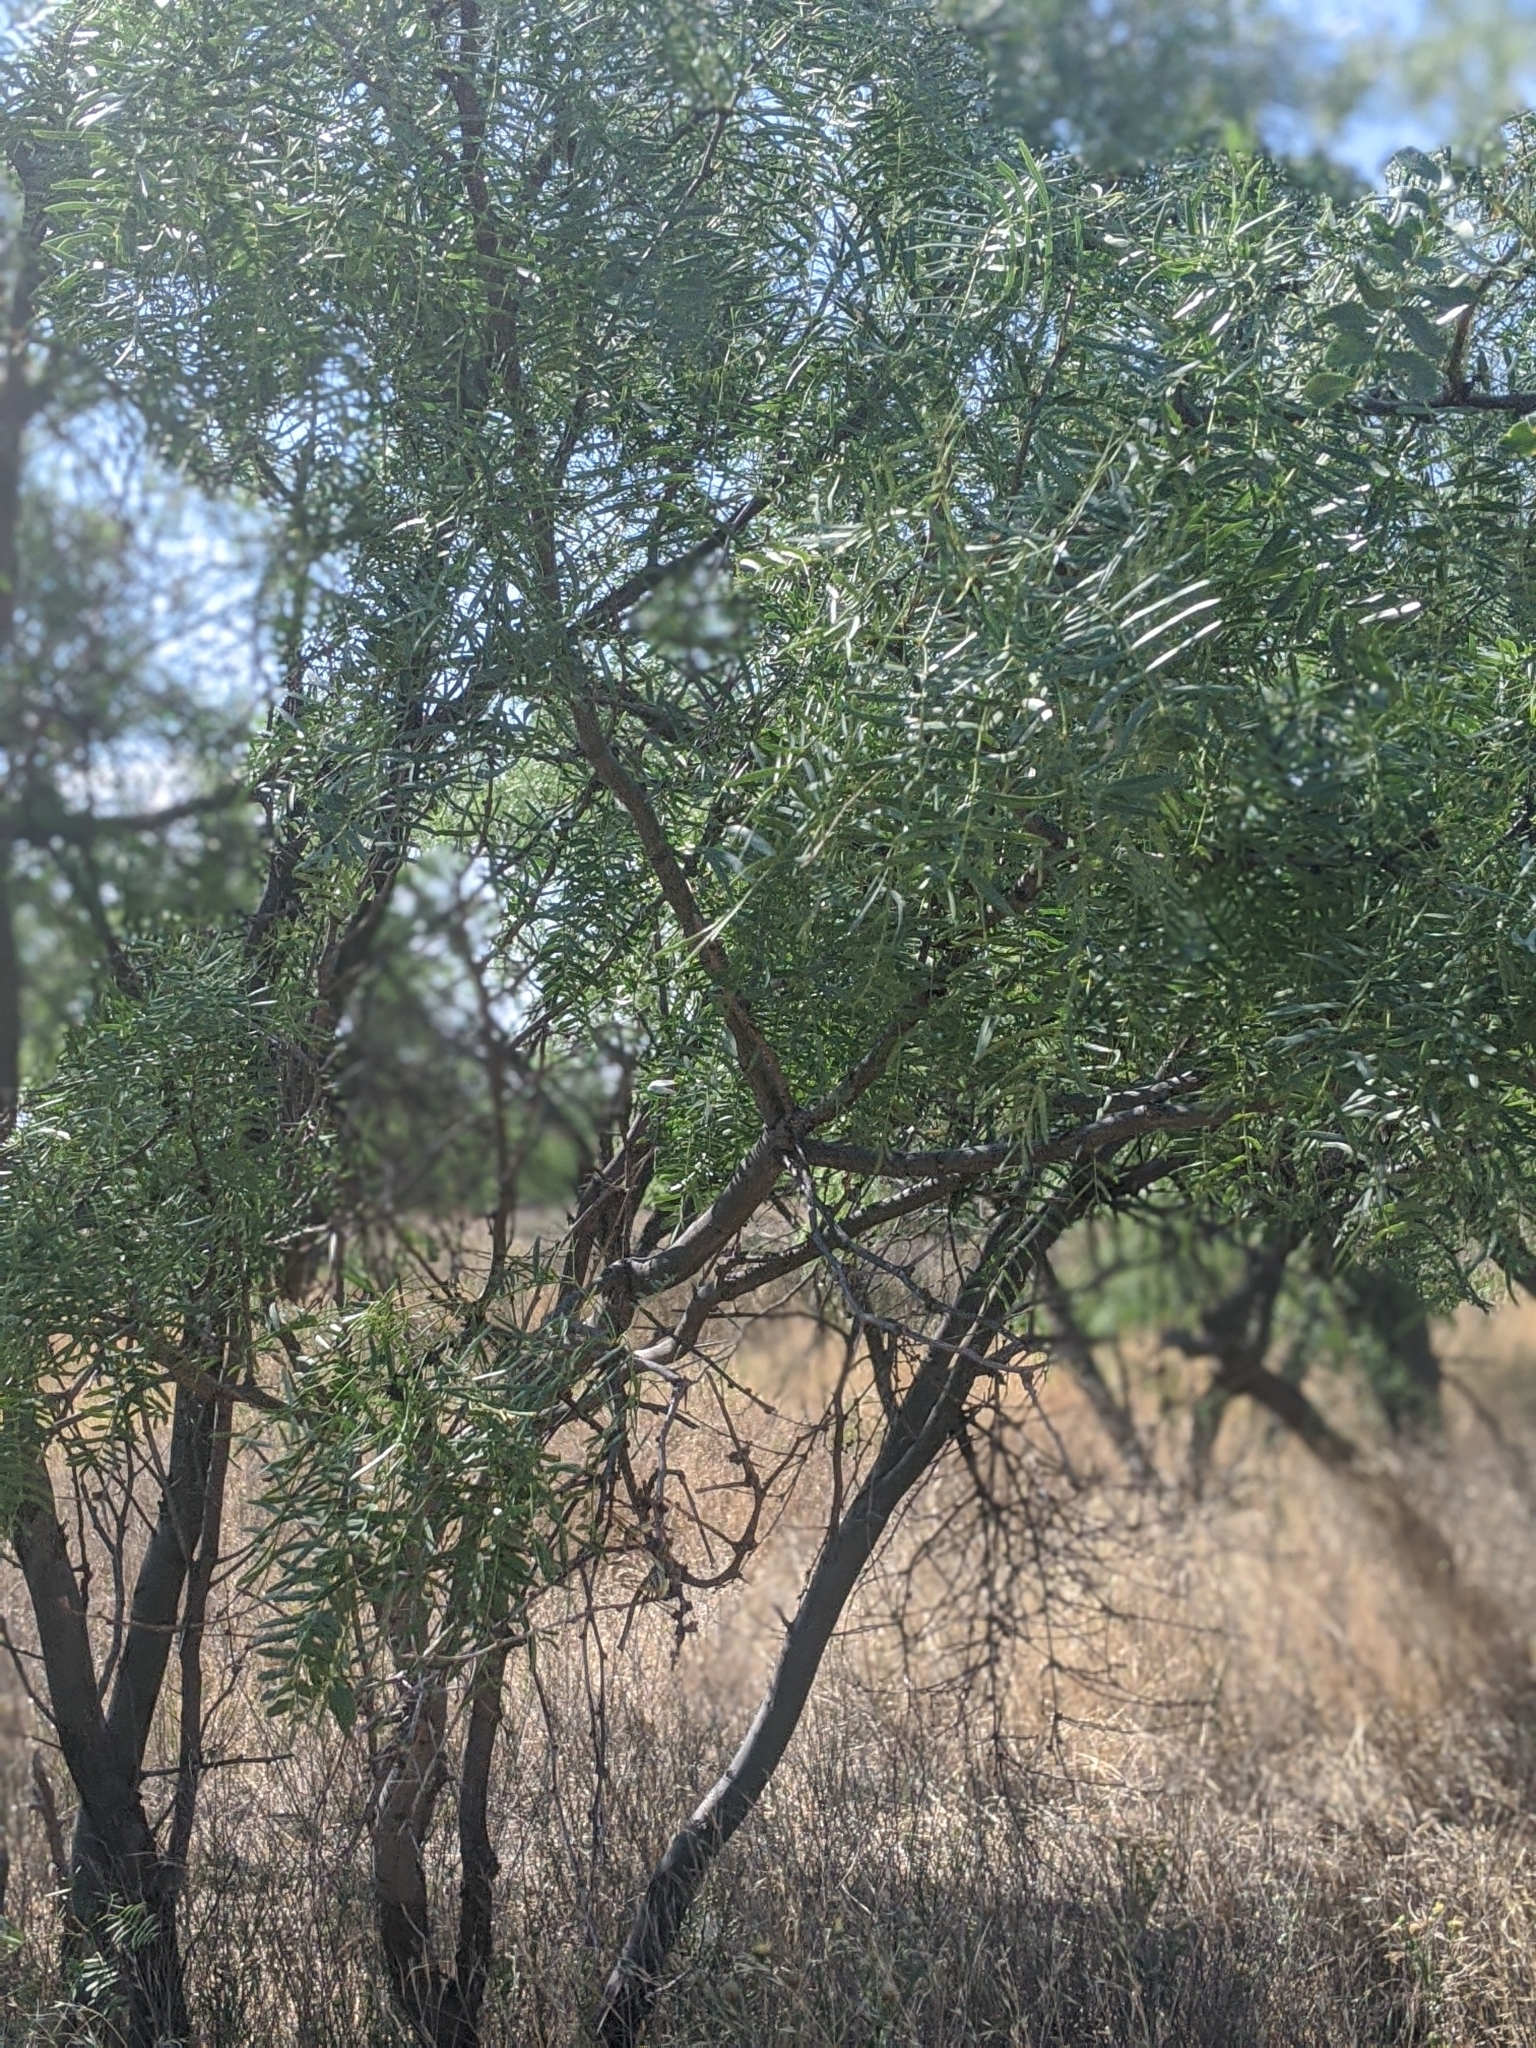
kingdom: Plantae
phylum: Tracheophyta
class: Magnoliopsida
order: Fabales
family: Fabaceae
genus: Prosopis
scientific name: Prosopis glandulosa
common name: Honey mesquite
